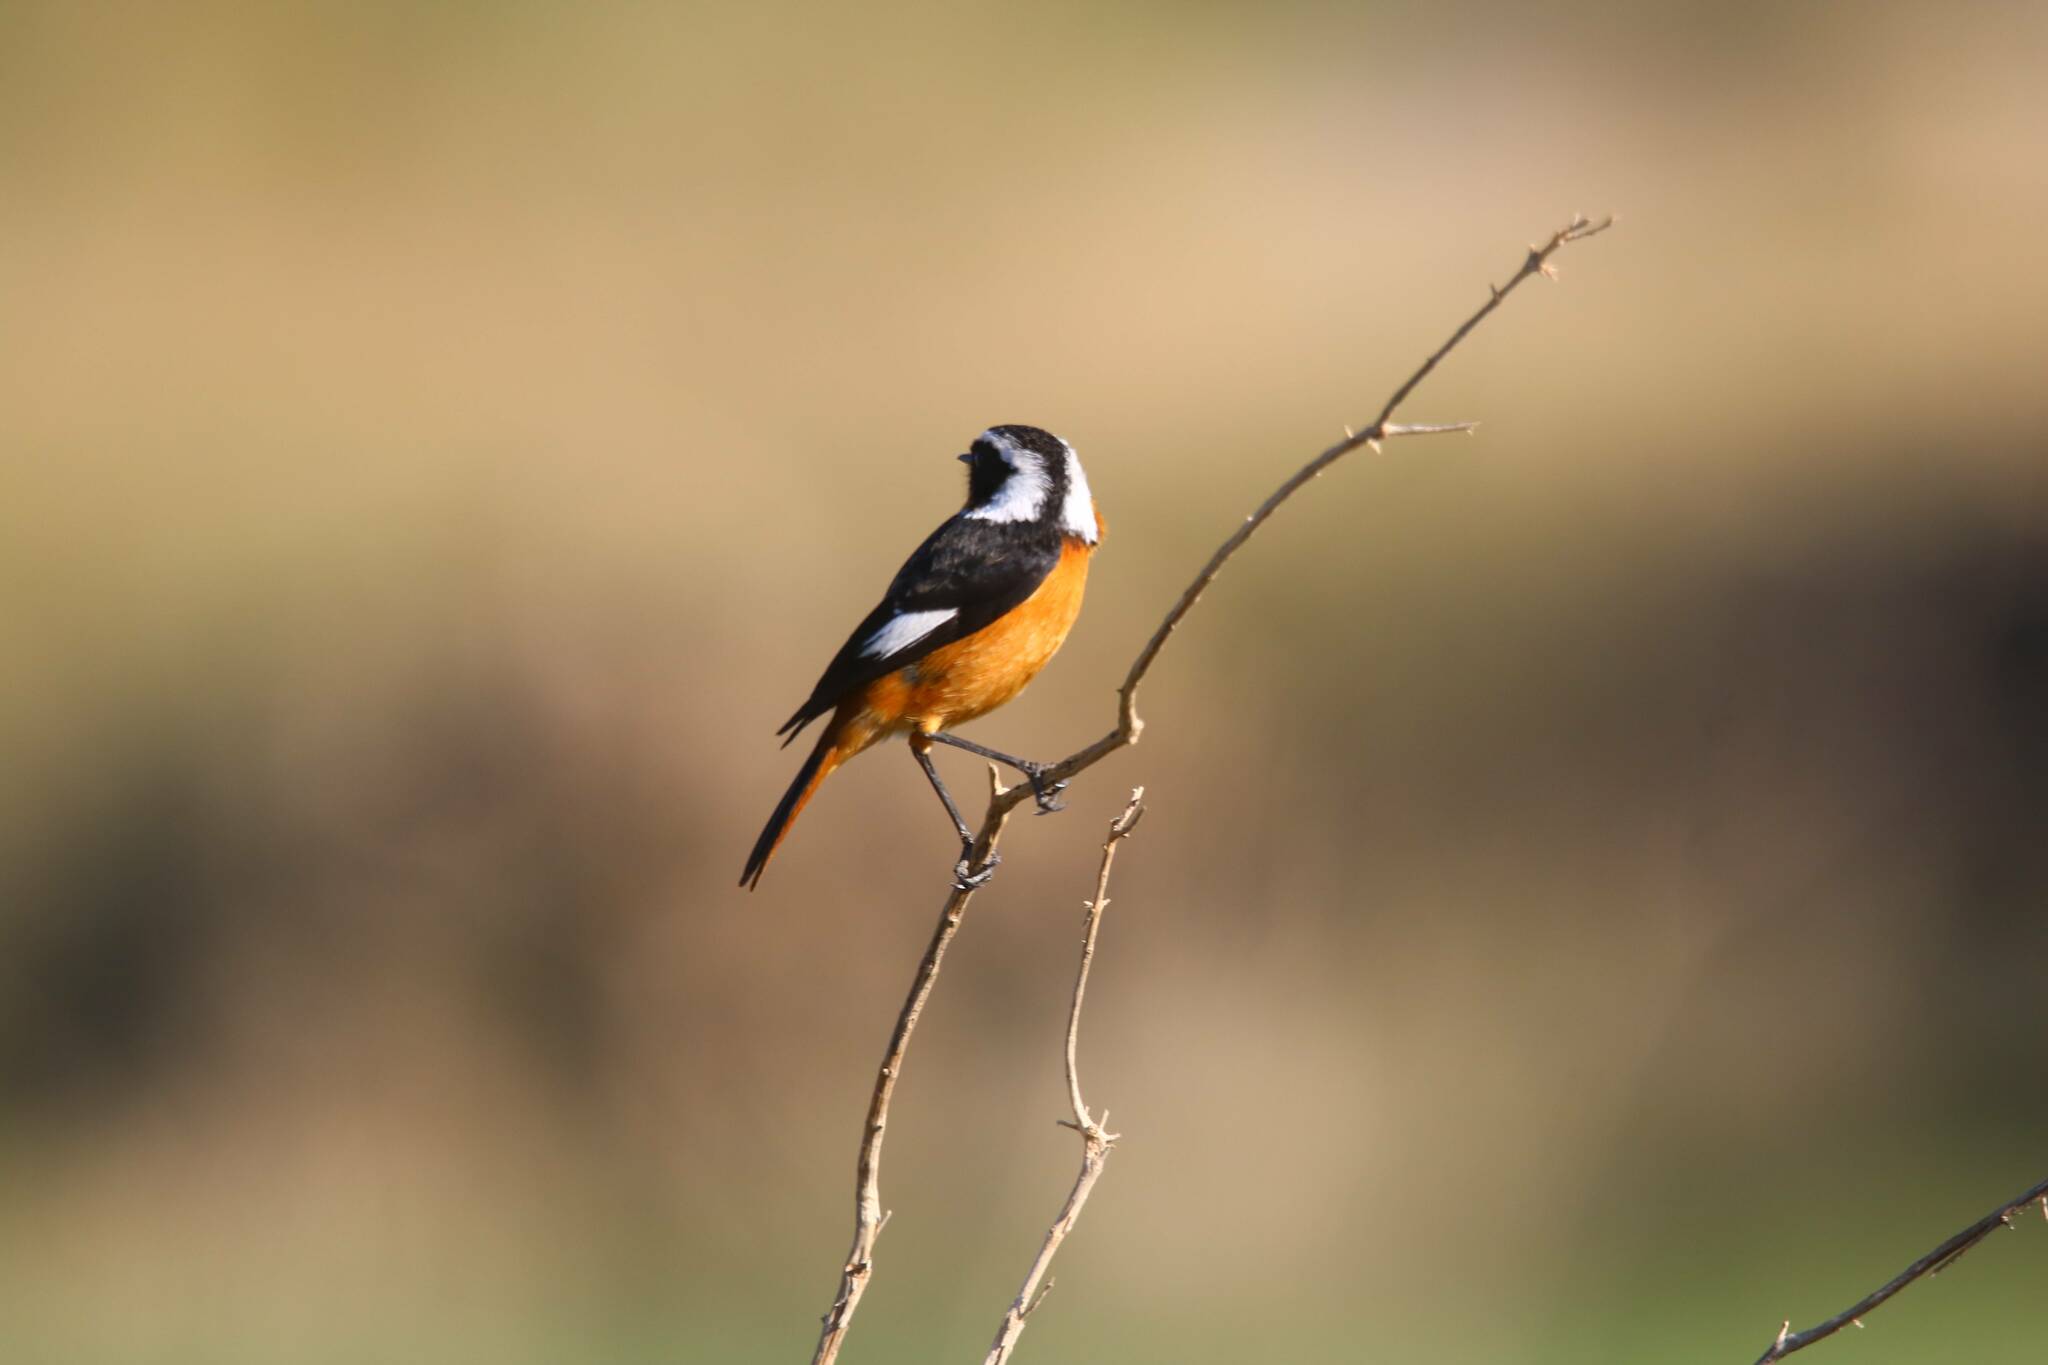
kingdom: Animalia
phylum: Chordata
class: Aves
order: Passeriformes
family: Muscicapidae
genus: Phoenicurus
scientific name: Phoenicurus moussieri
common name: Moussier's redstart
